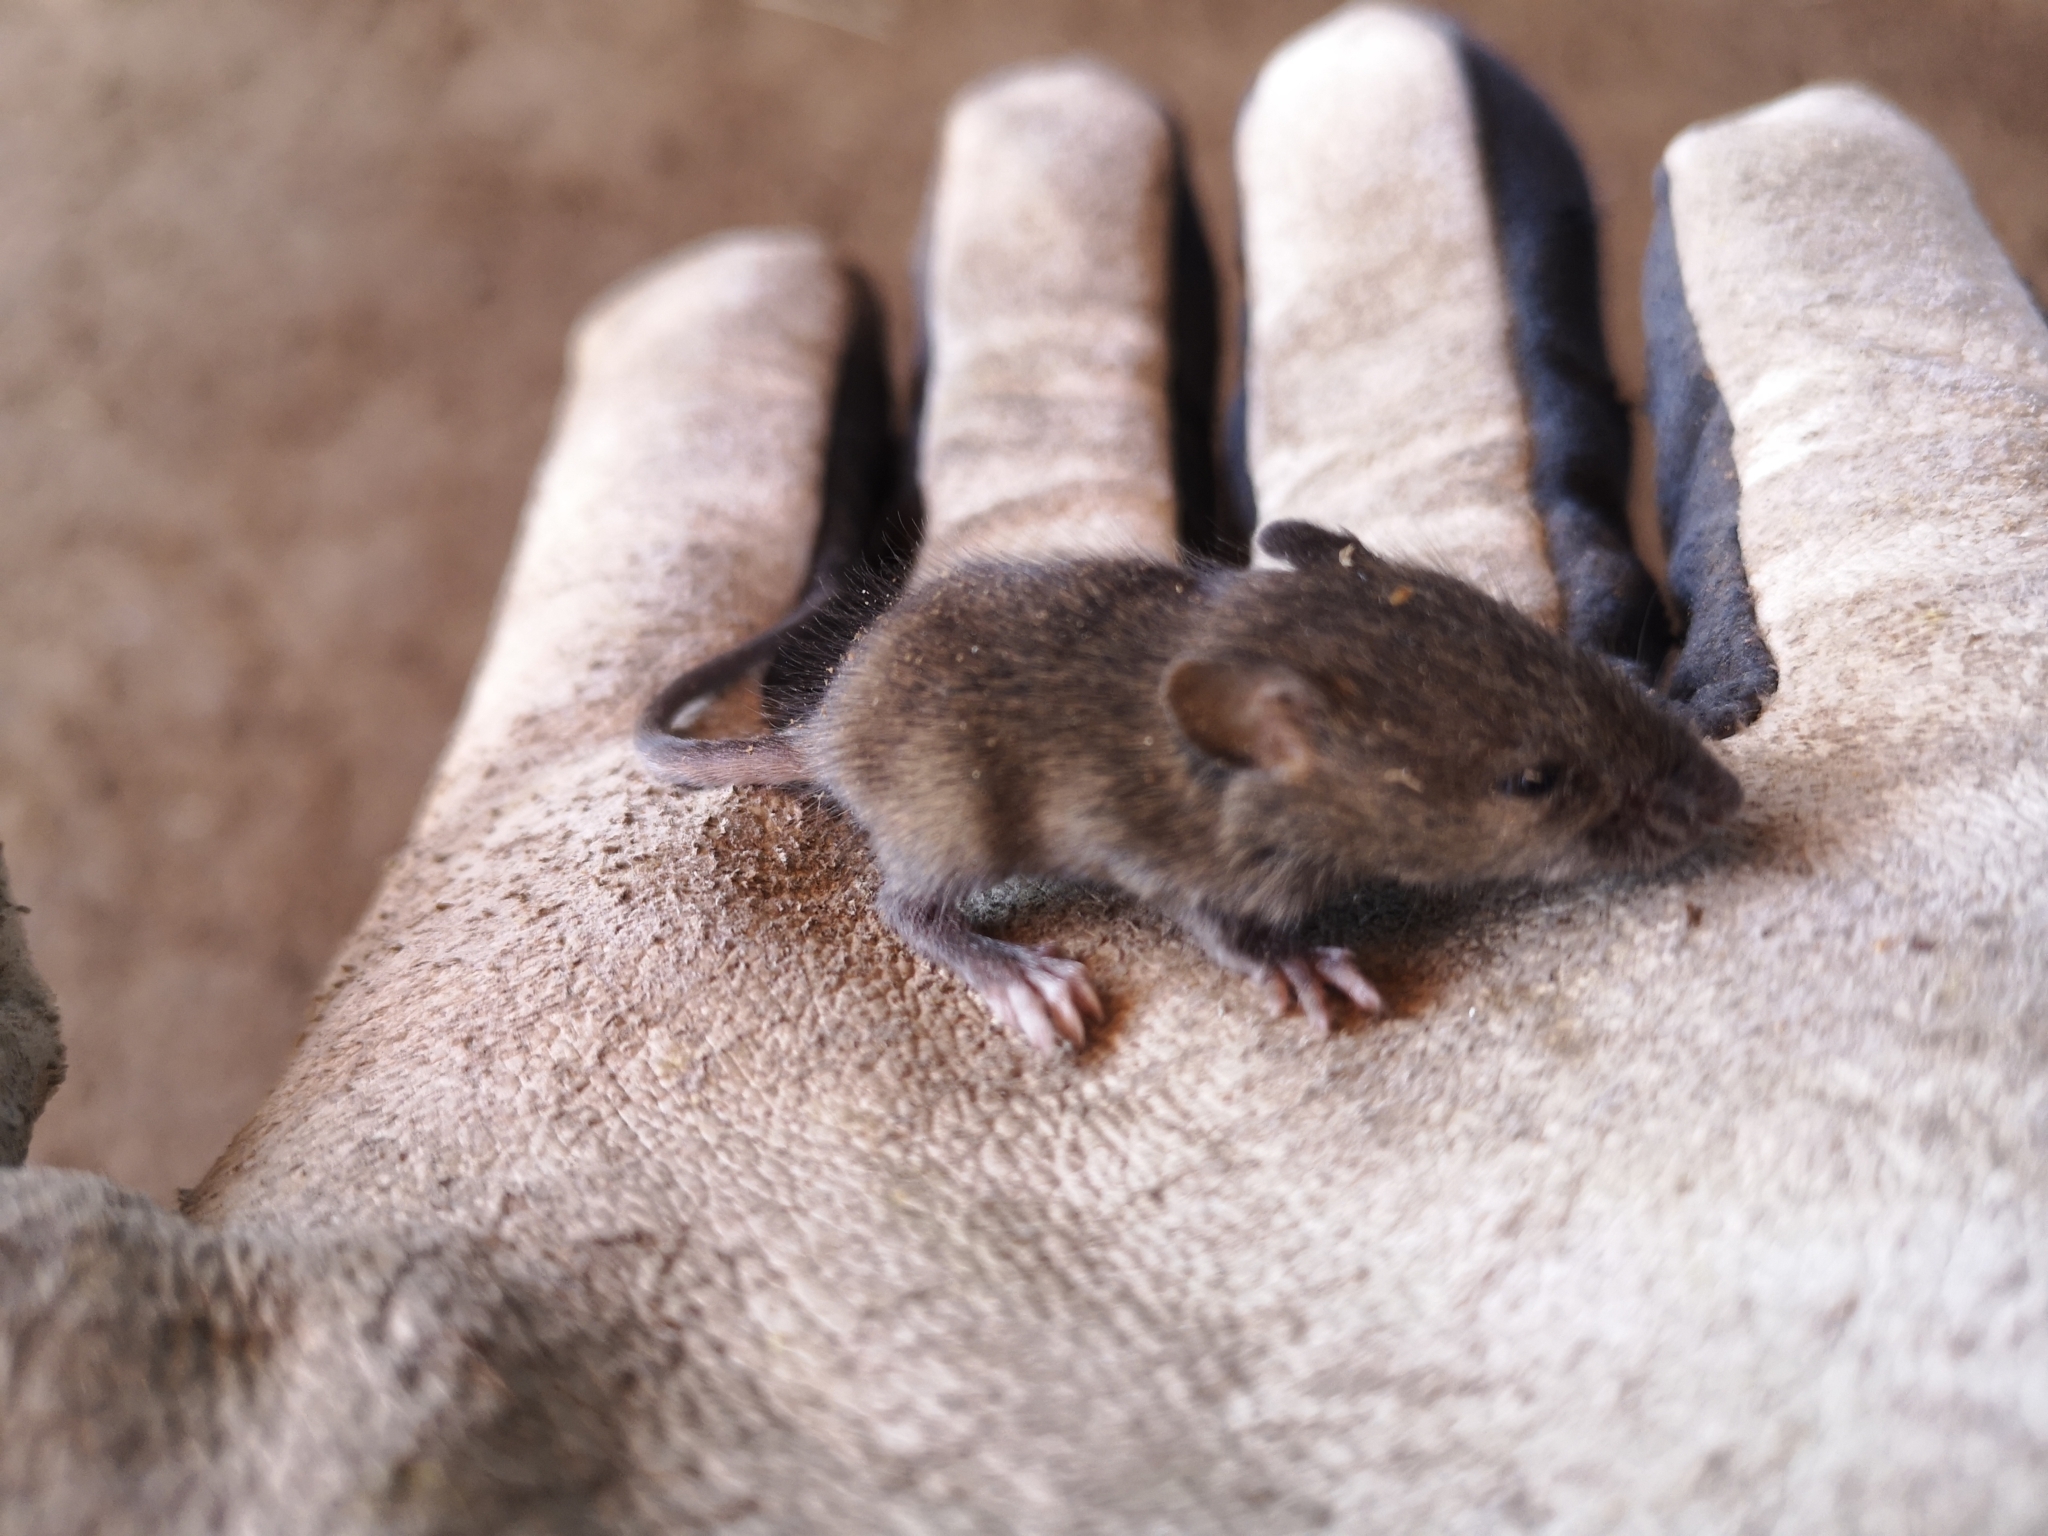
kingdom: Animalia
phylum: Chordata
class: Mammalia
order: Rodentia
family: Muridae
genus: Rattus
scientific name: Rattus norvegicus
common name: Brown rat
